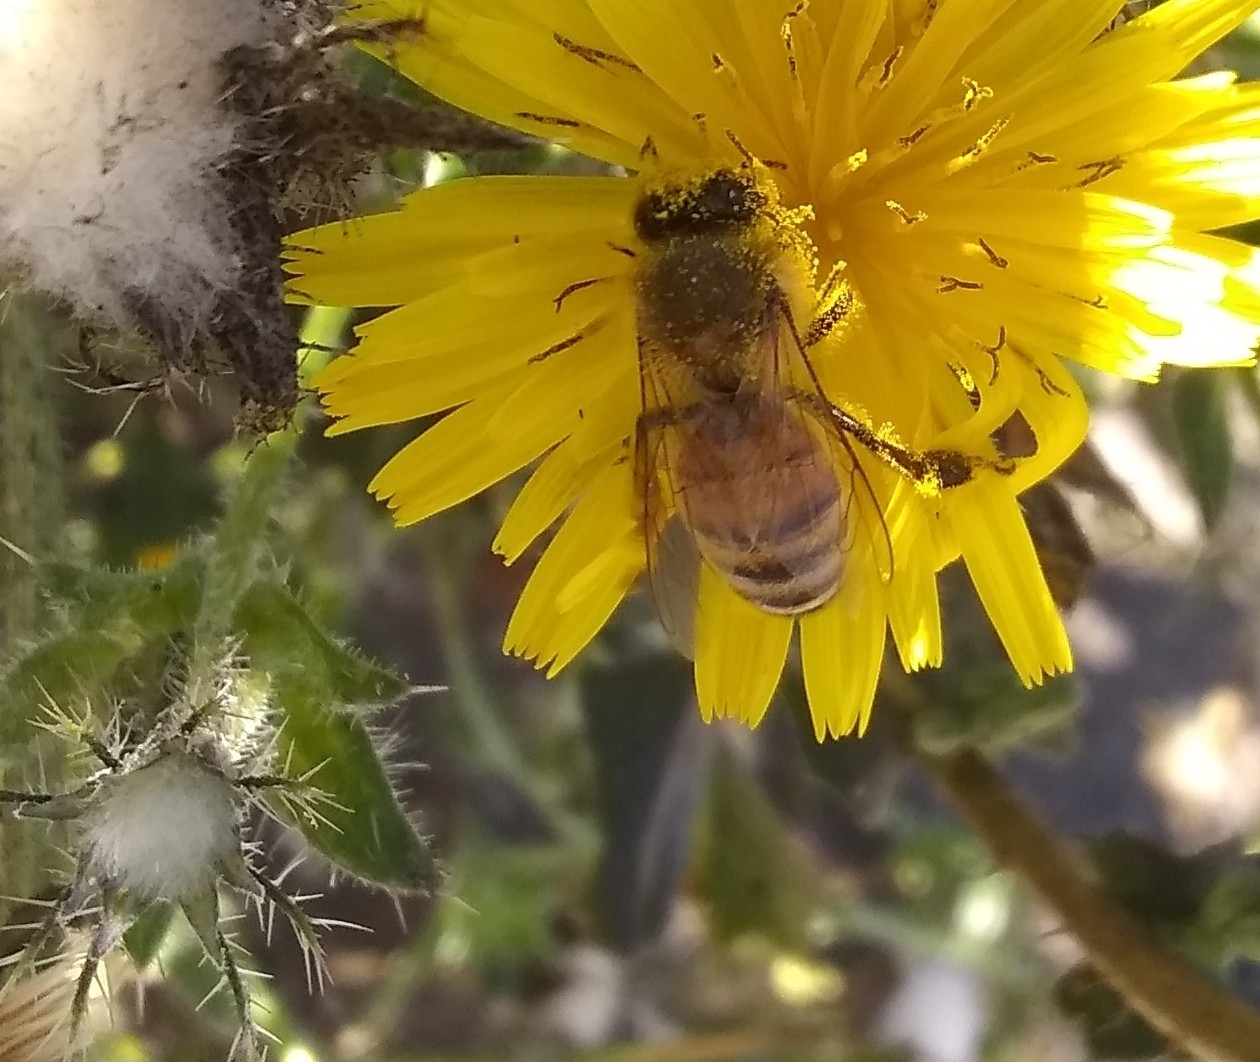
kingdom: Animalia
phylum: Arthropoda
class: Insecta
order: Hymenoptera
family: Apidae
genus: Apis
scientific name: Apis mellifera
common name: Honey bee
